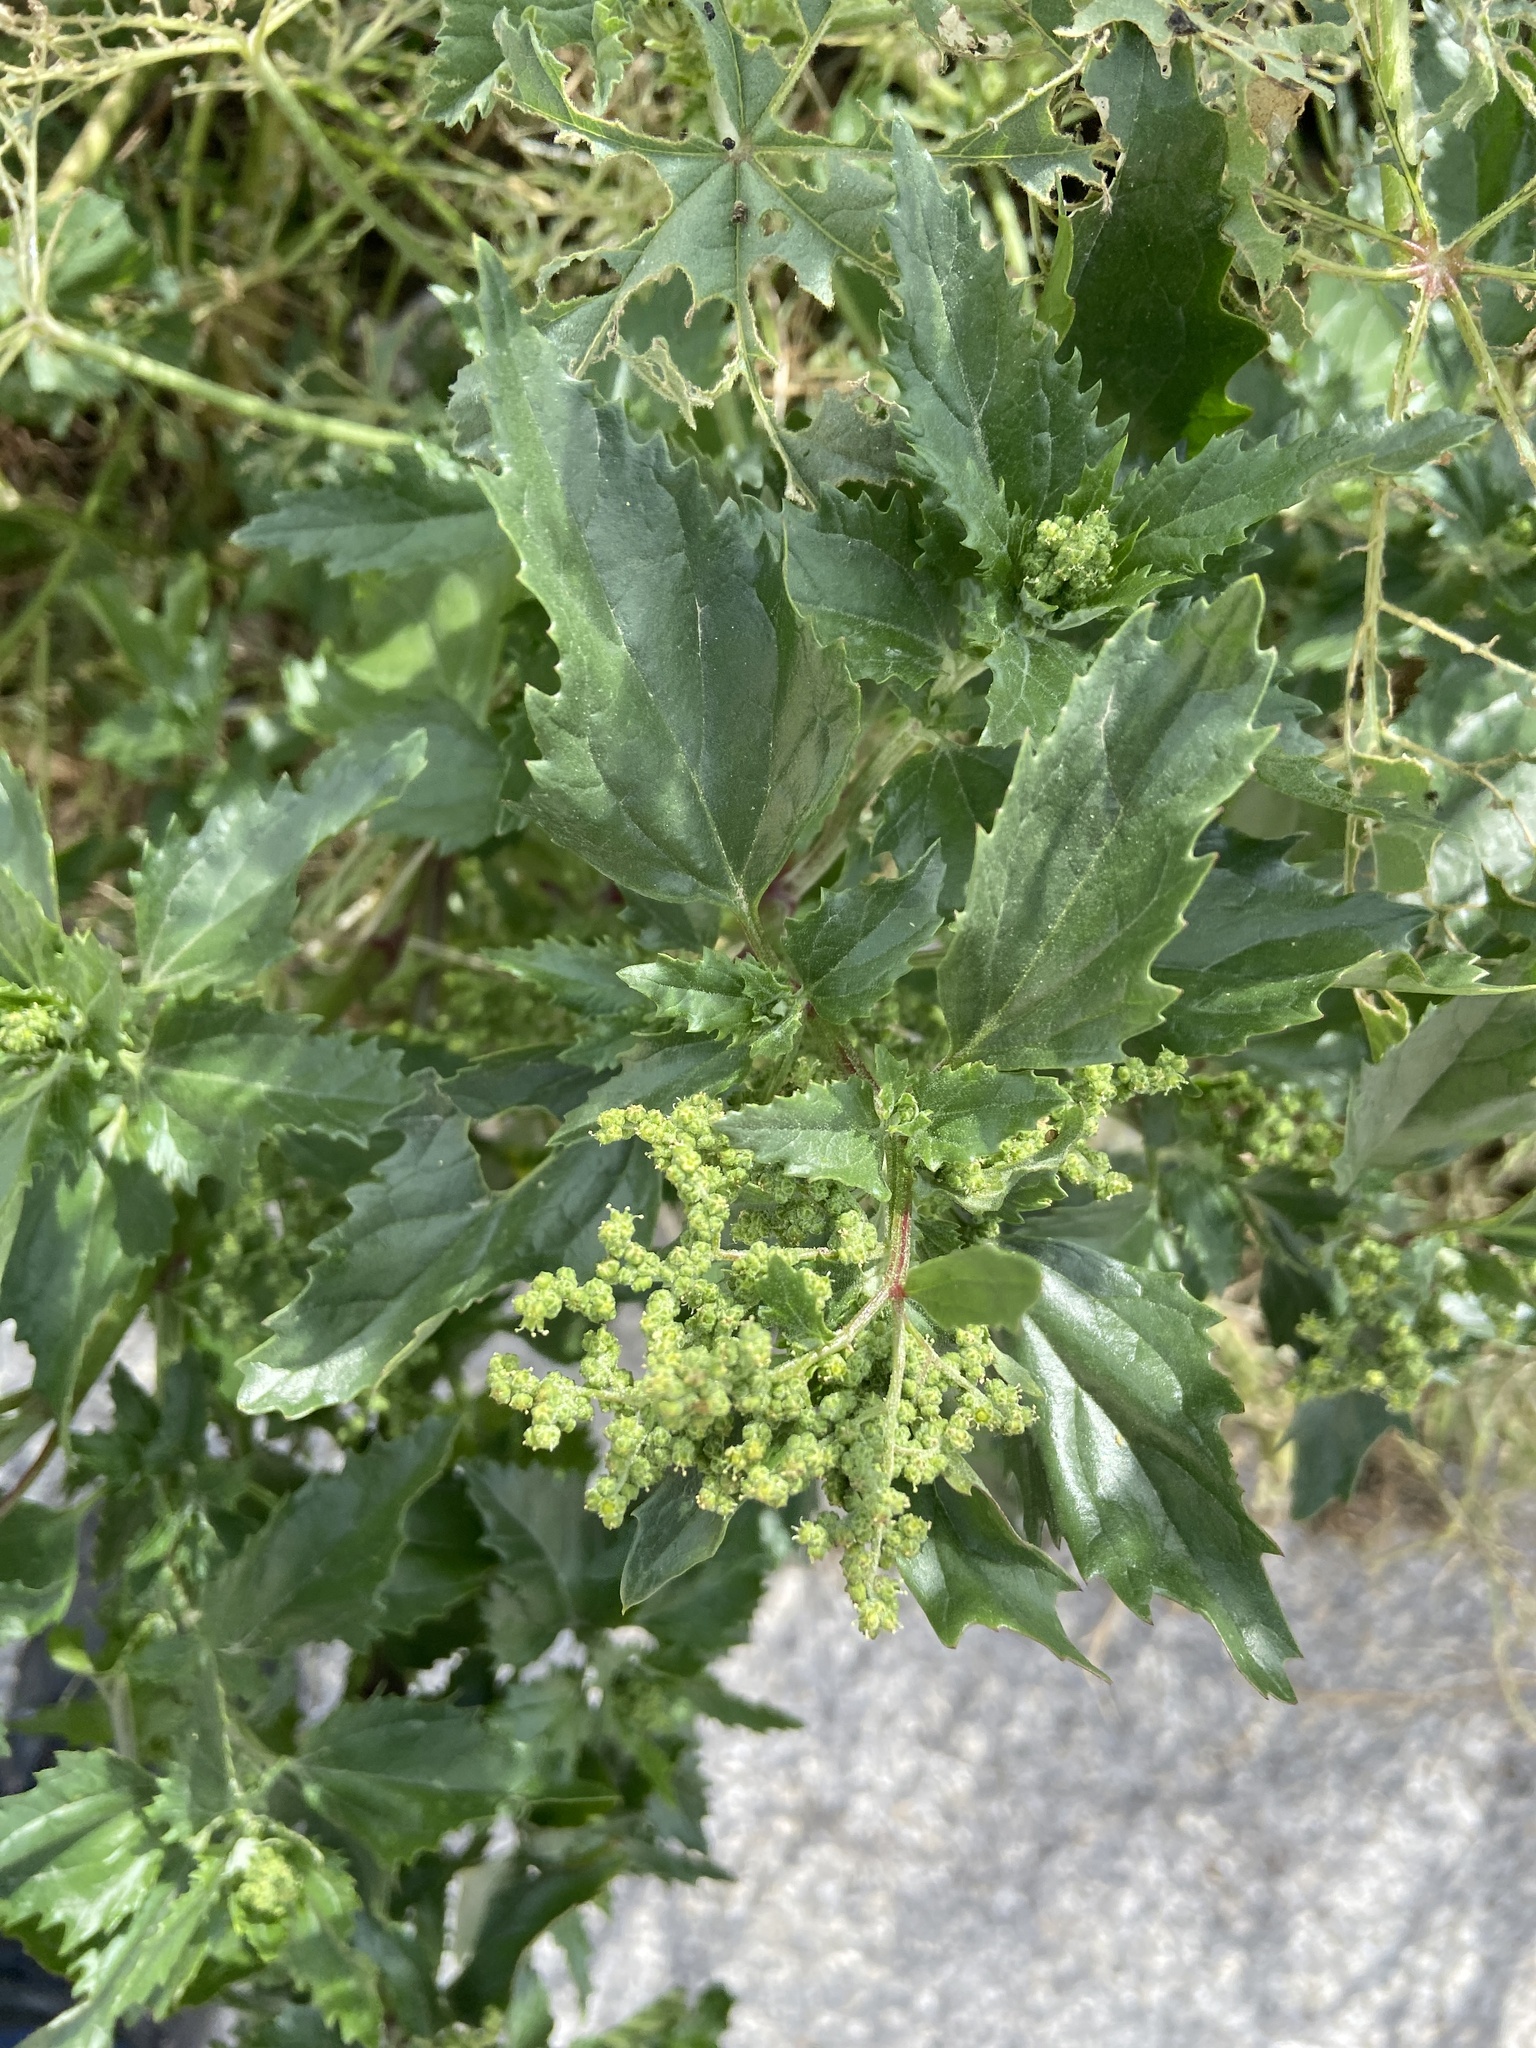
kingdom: Plantae
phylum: Tracheophyta
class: Magnoliopsida
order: Caryophyllales
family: Amaranthaceae
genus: Chenopodiastrum
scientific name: Chenopodiastrum murale
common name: Sowbane
